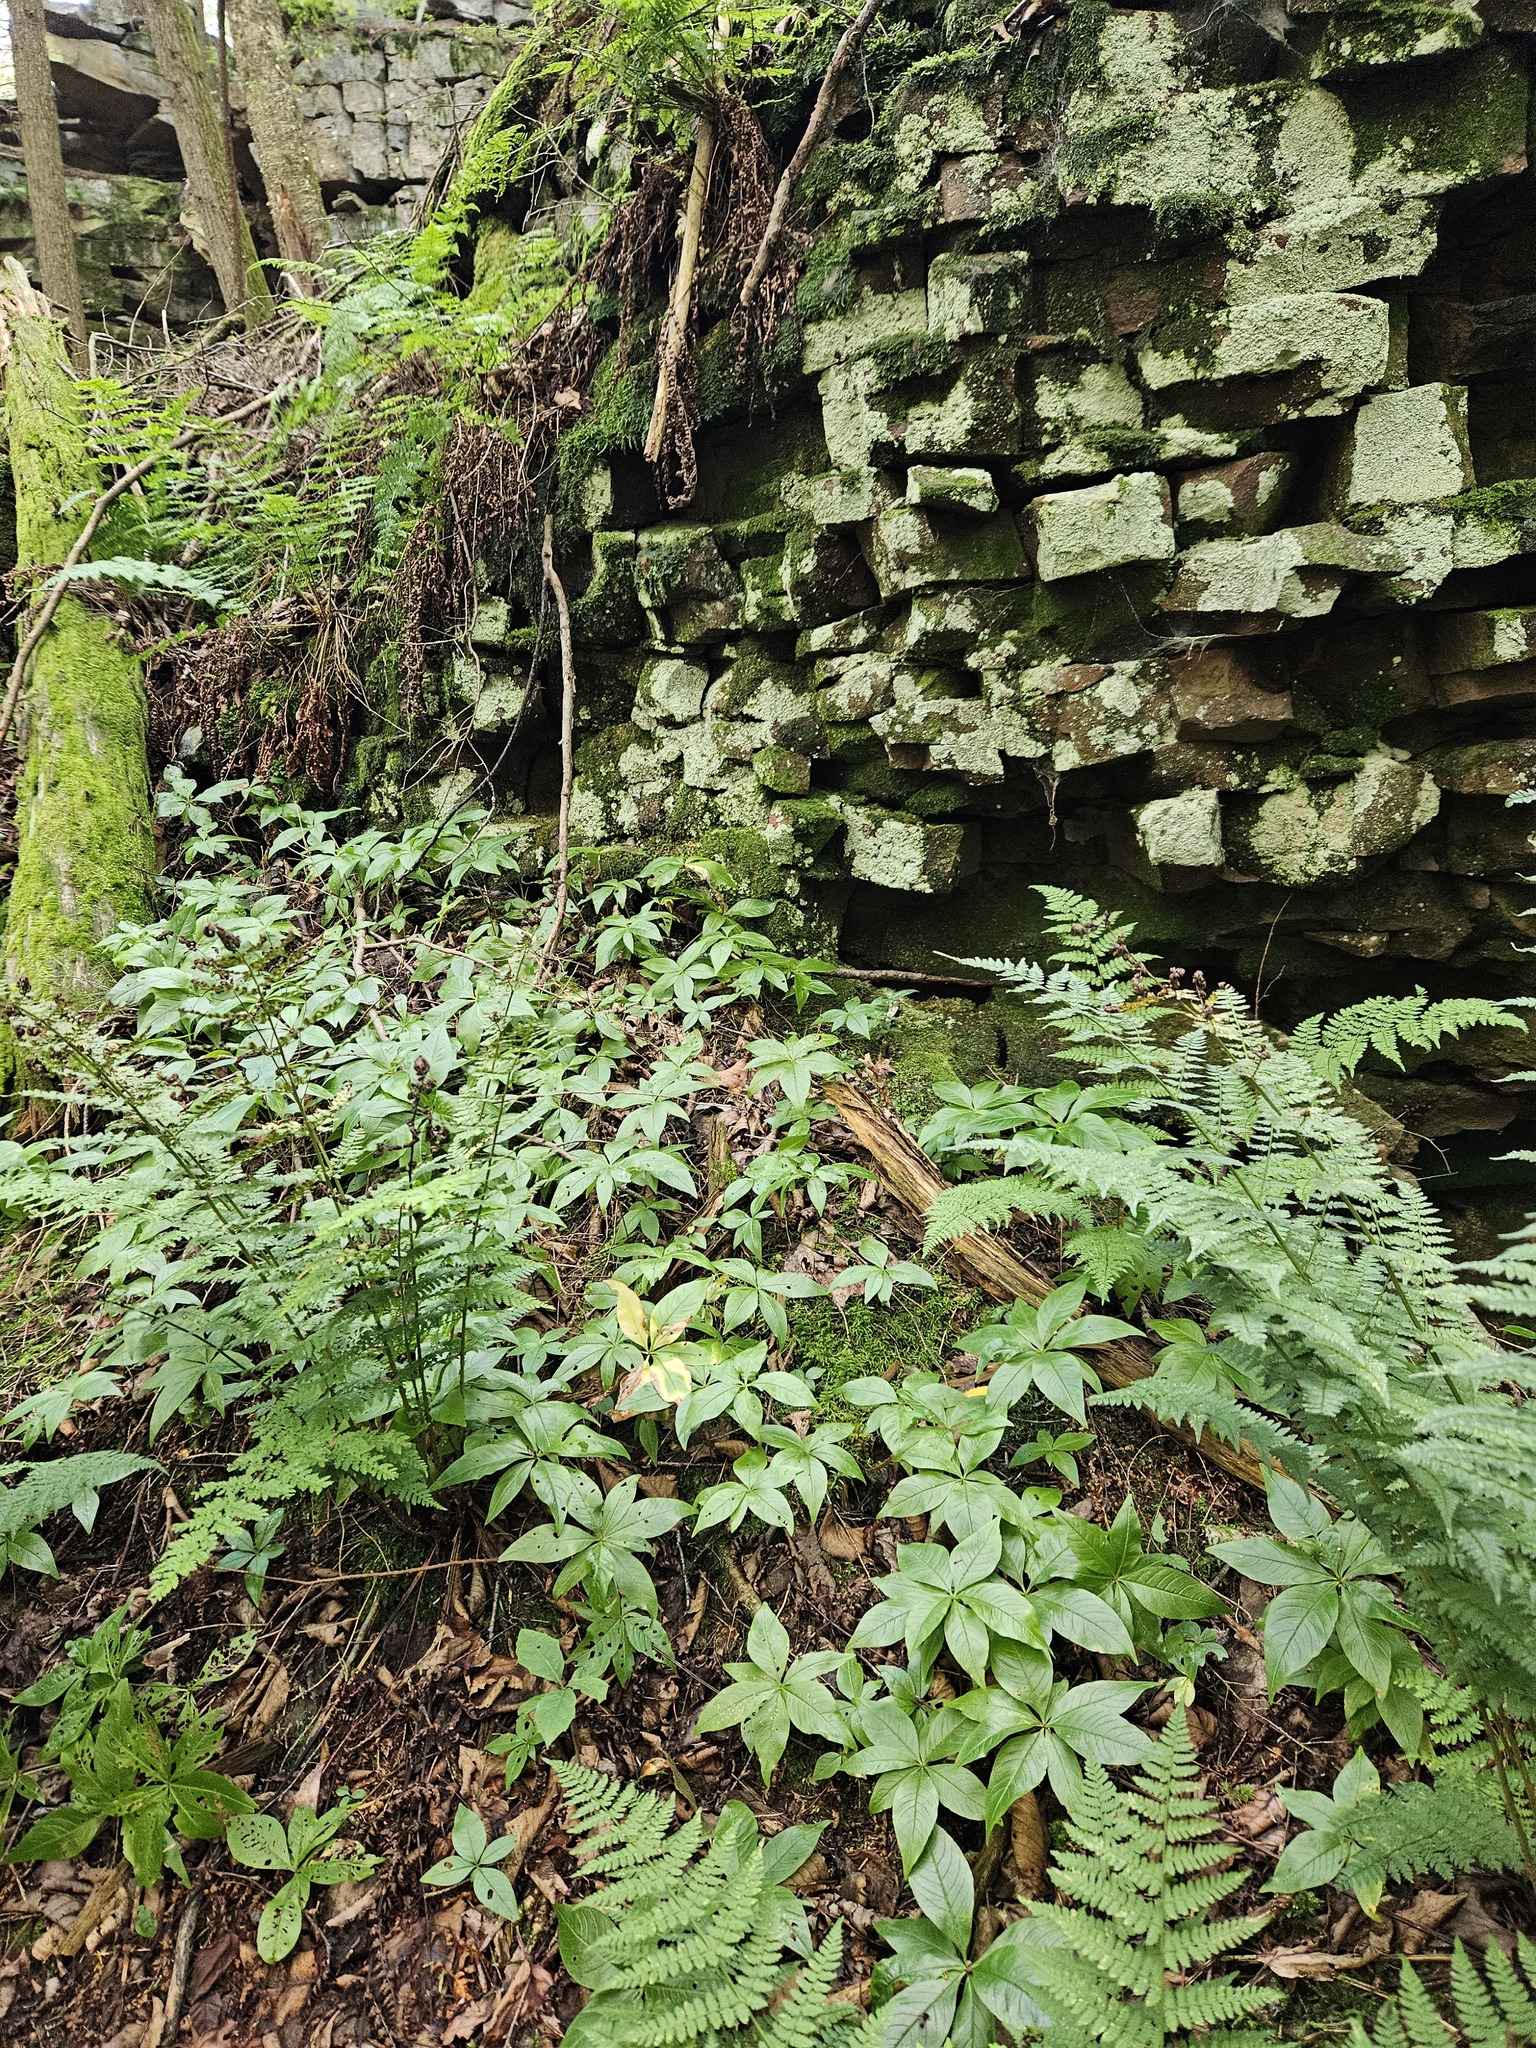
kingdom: Plantae
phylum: Tracheophyta
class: Magnoliopsida
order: Ericales
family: Primulaceae
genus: Lysimachia
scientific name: Lysimachia borealis
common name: American starflower
